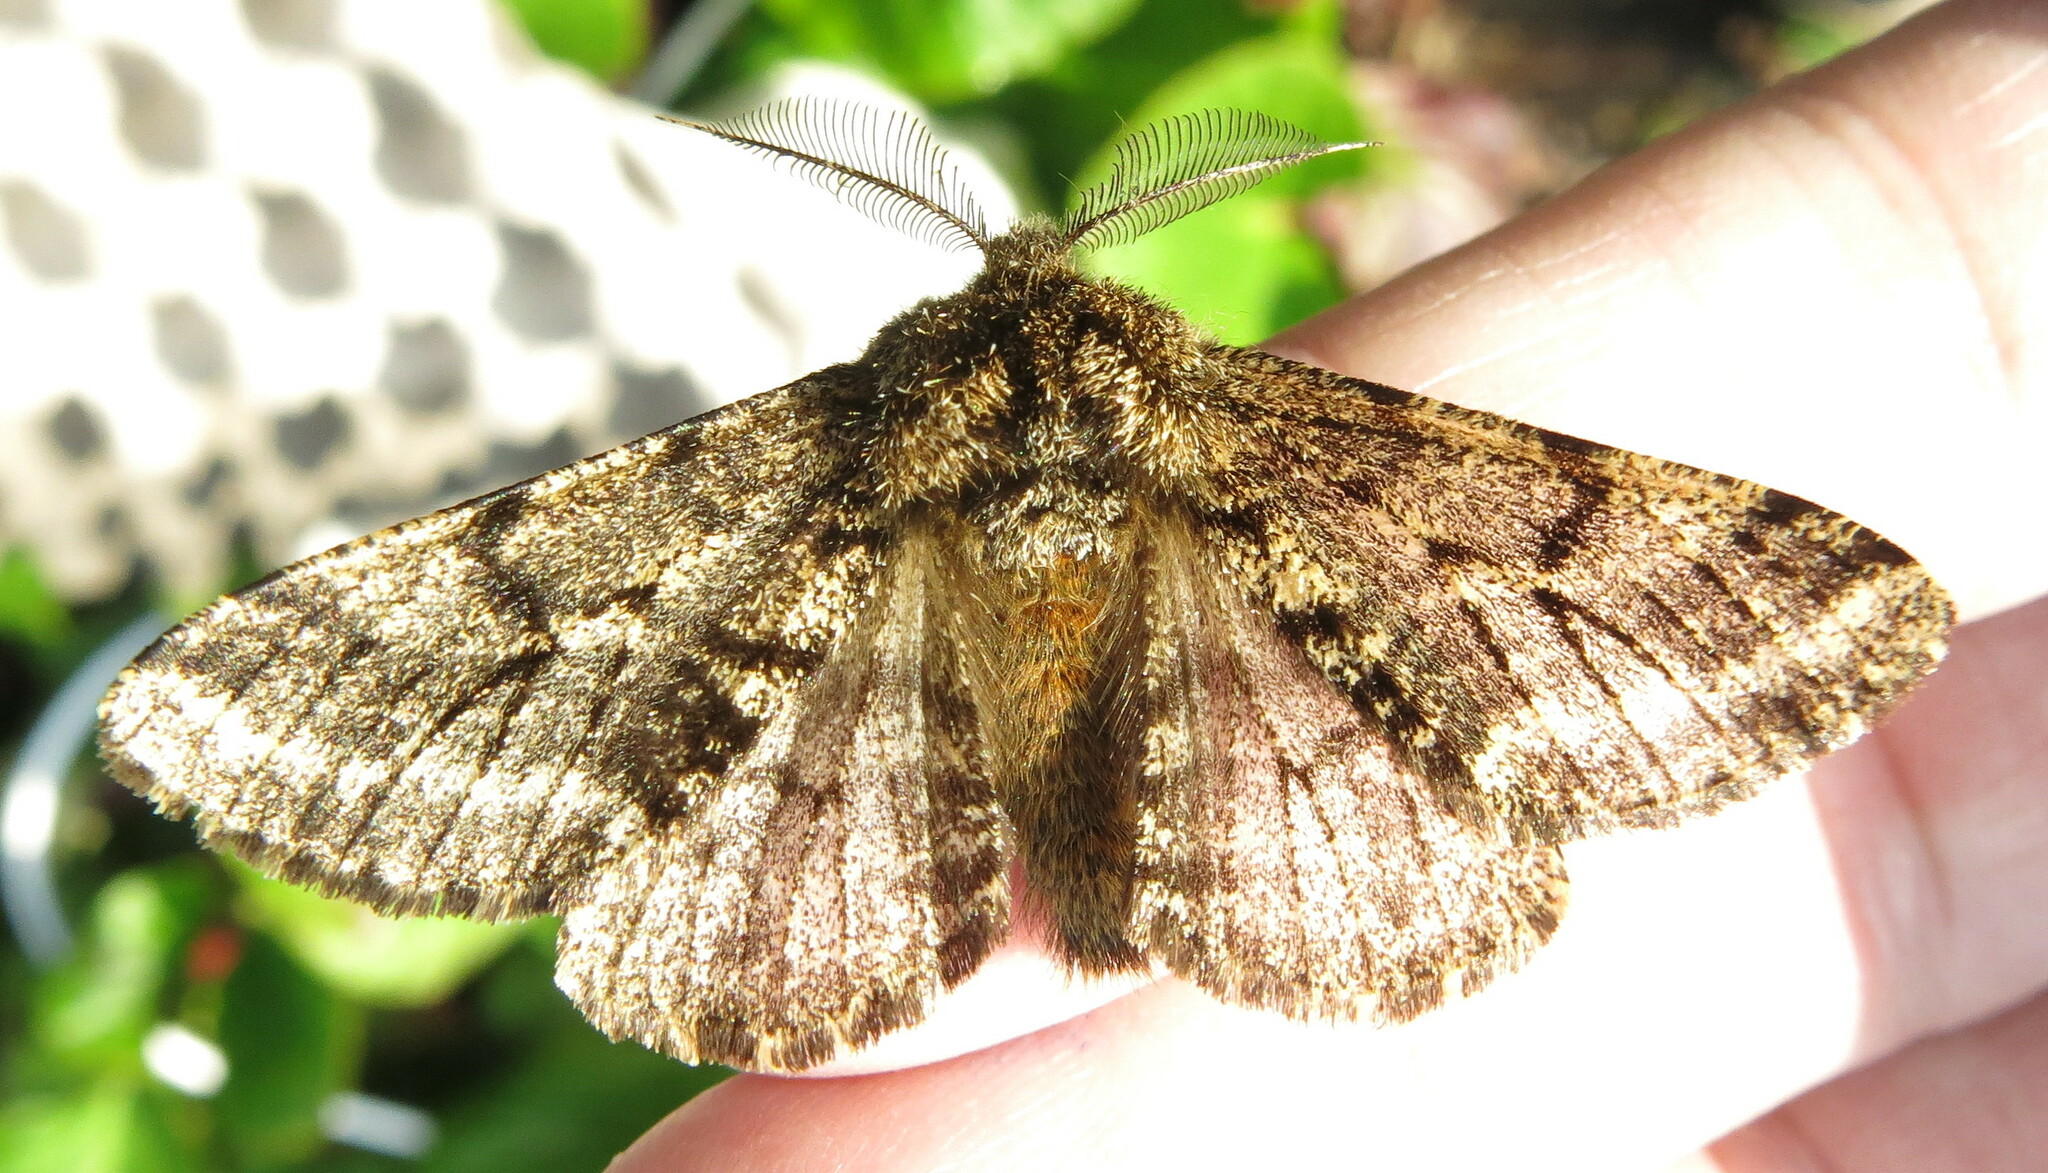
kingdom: Animalia
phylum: Arthropoda
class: Insecta
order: Lepidoptera
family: Geometridae
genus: Lycia
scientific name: Lycia hirtaria
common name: Brindled beauty
